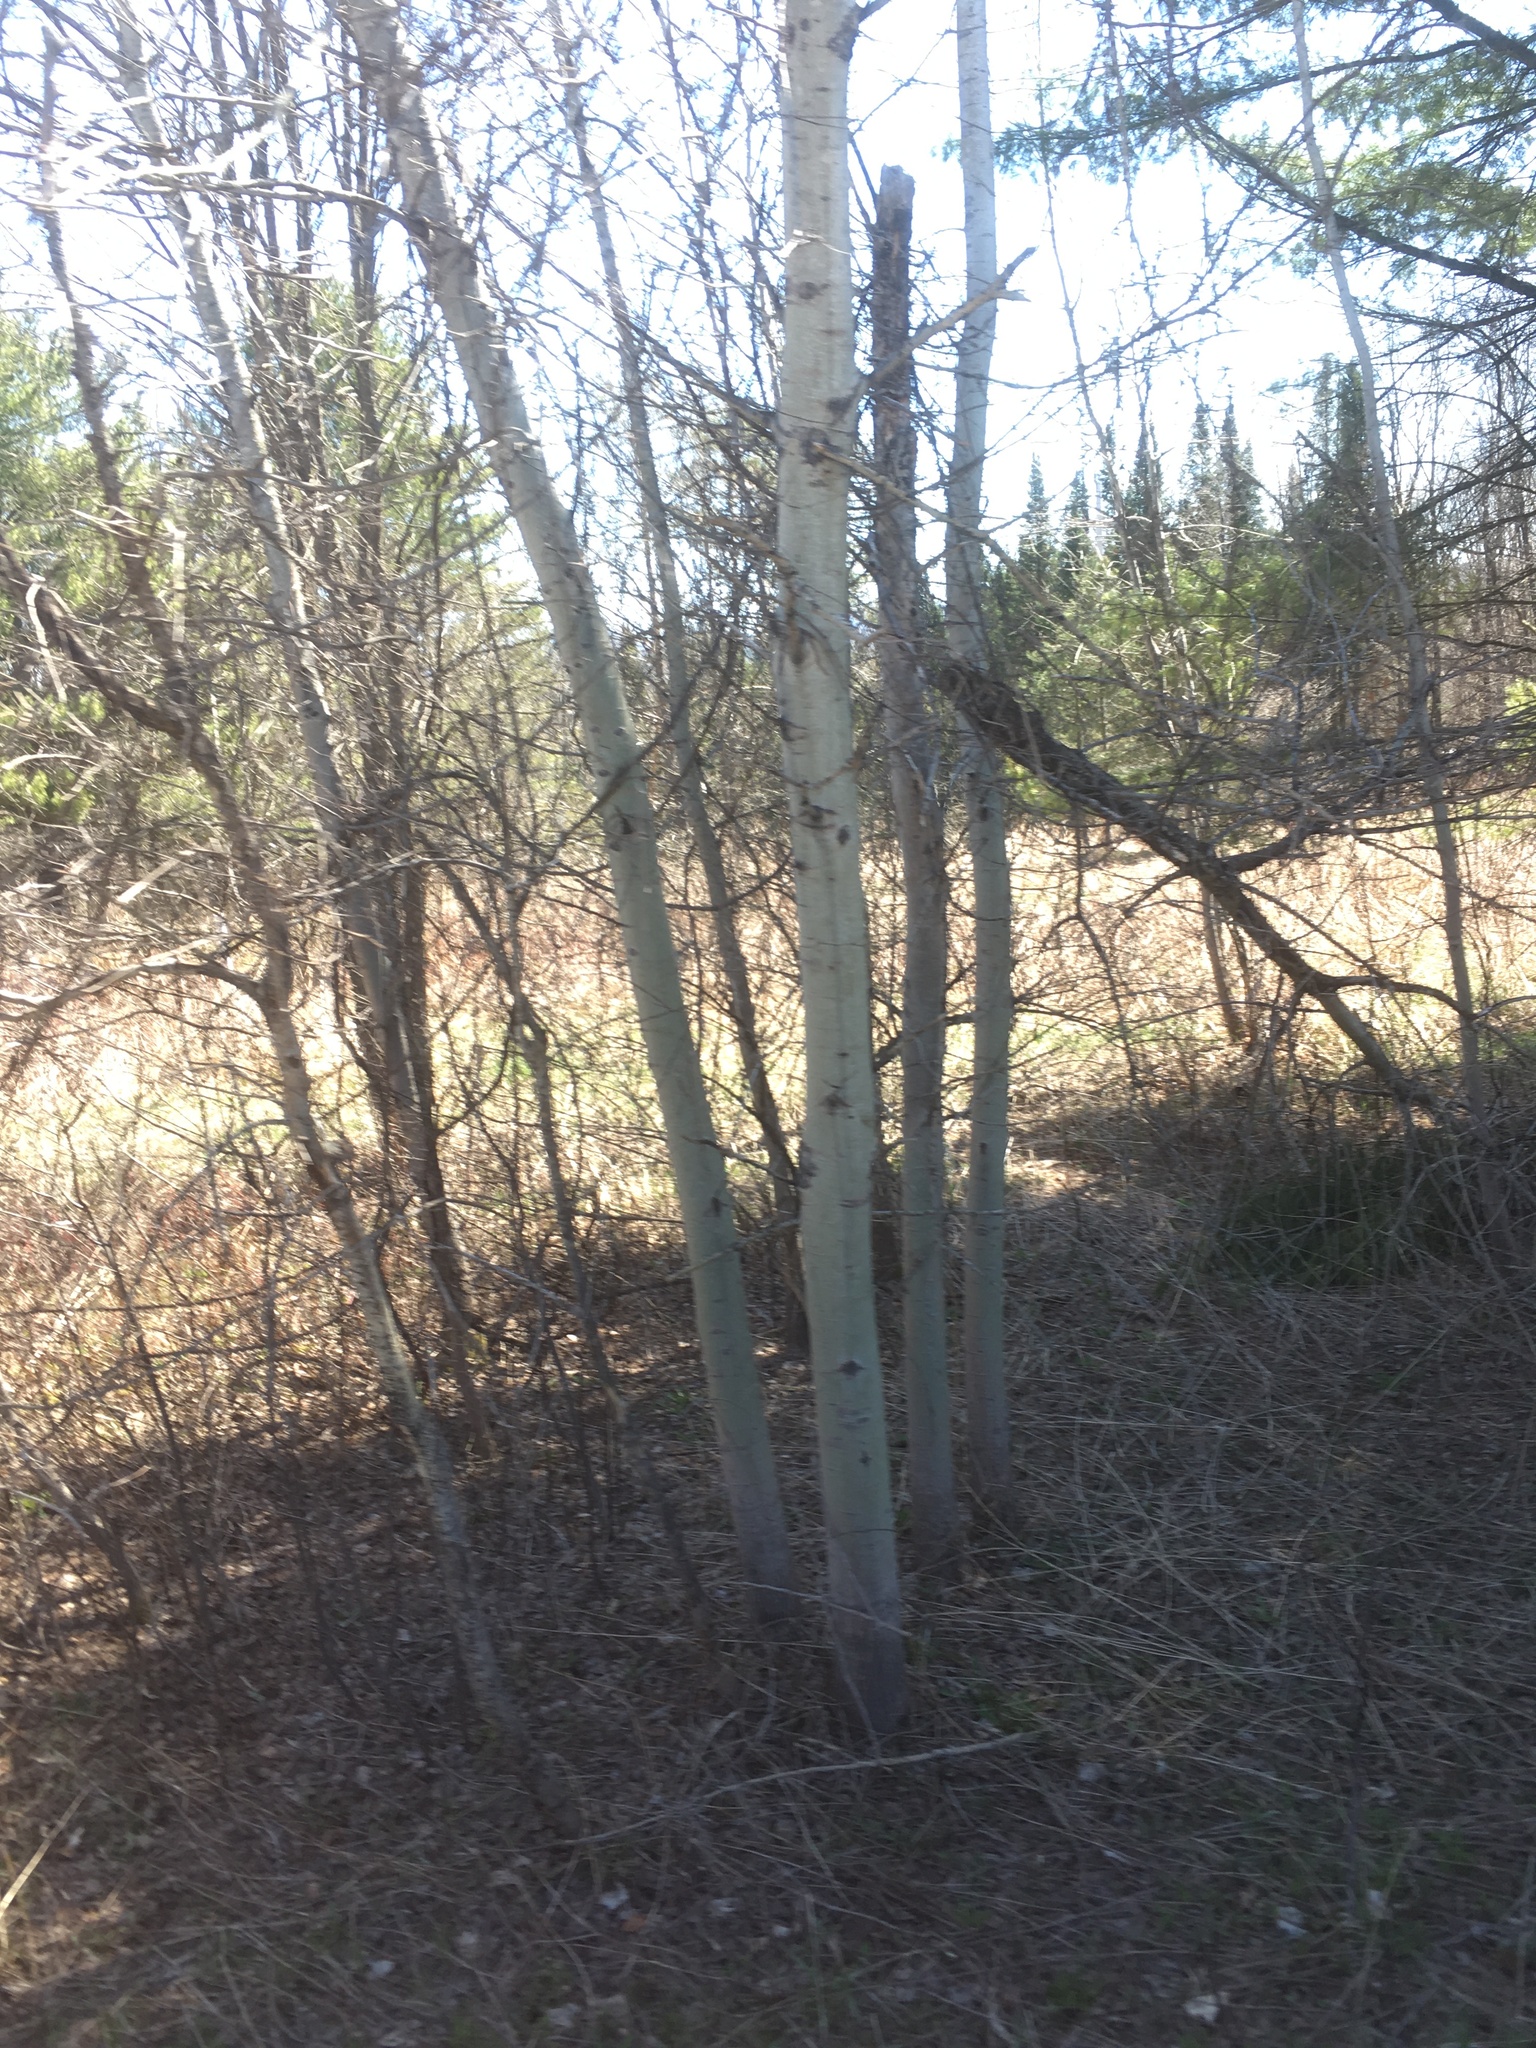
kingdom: Plantae
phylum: Tracheophyta
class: Magnoliopsida
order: Malpighiales
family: Salicaceae
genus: Populus
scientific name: Populus tremuloides
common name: Quaking aspen
